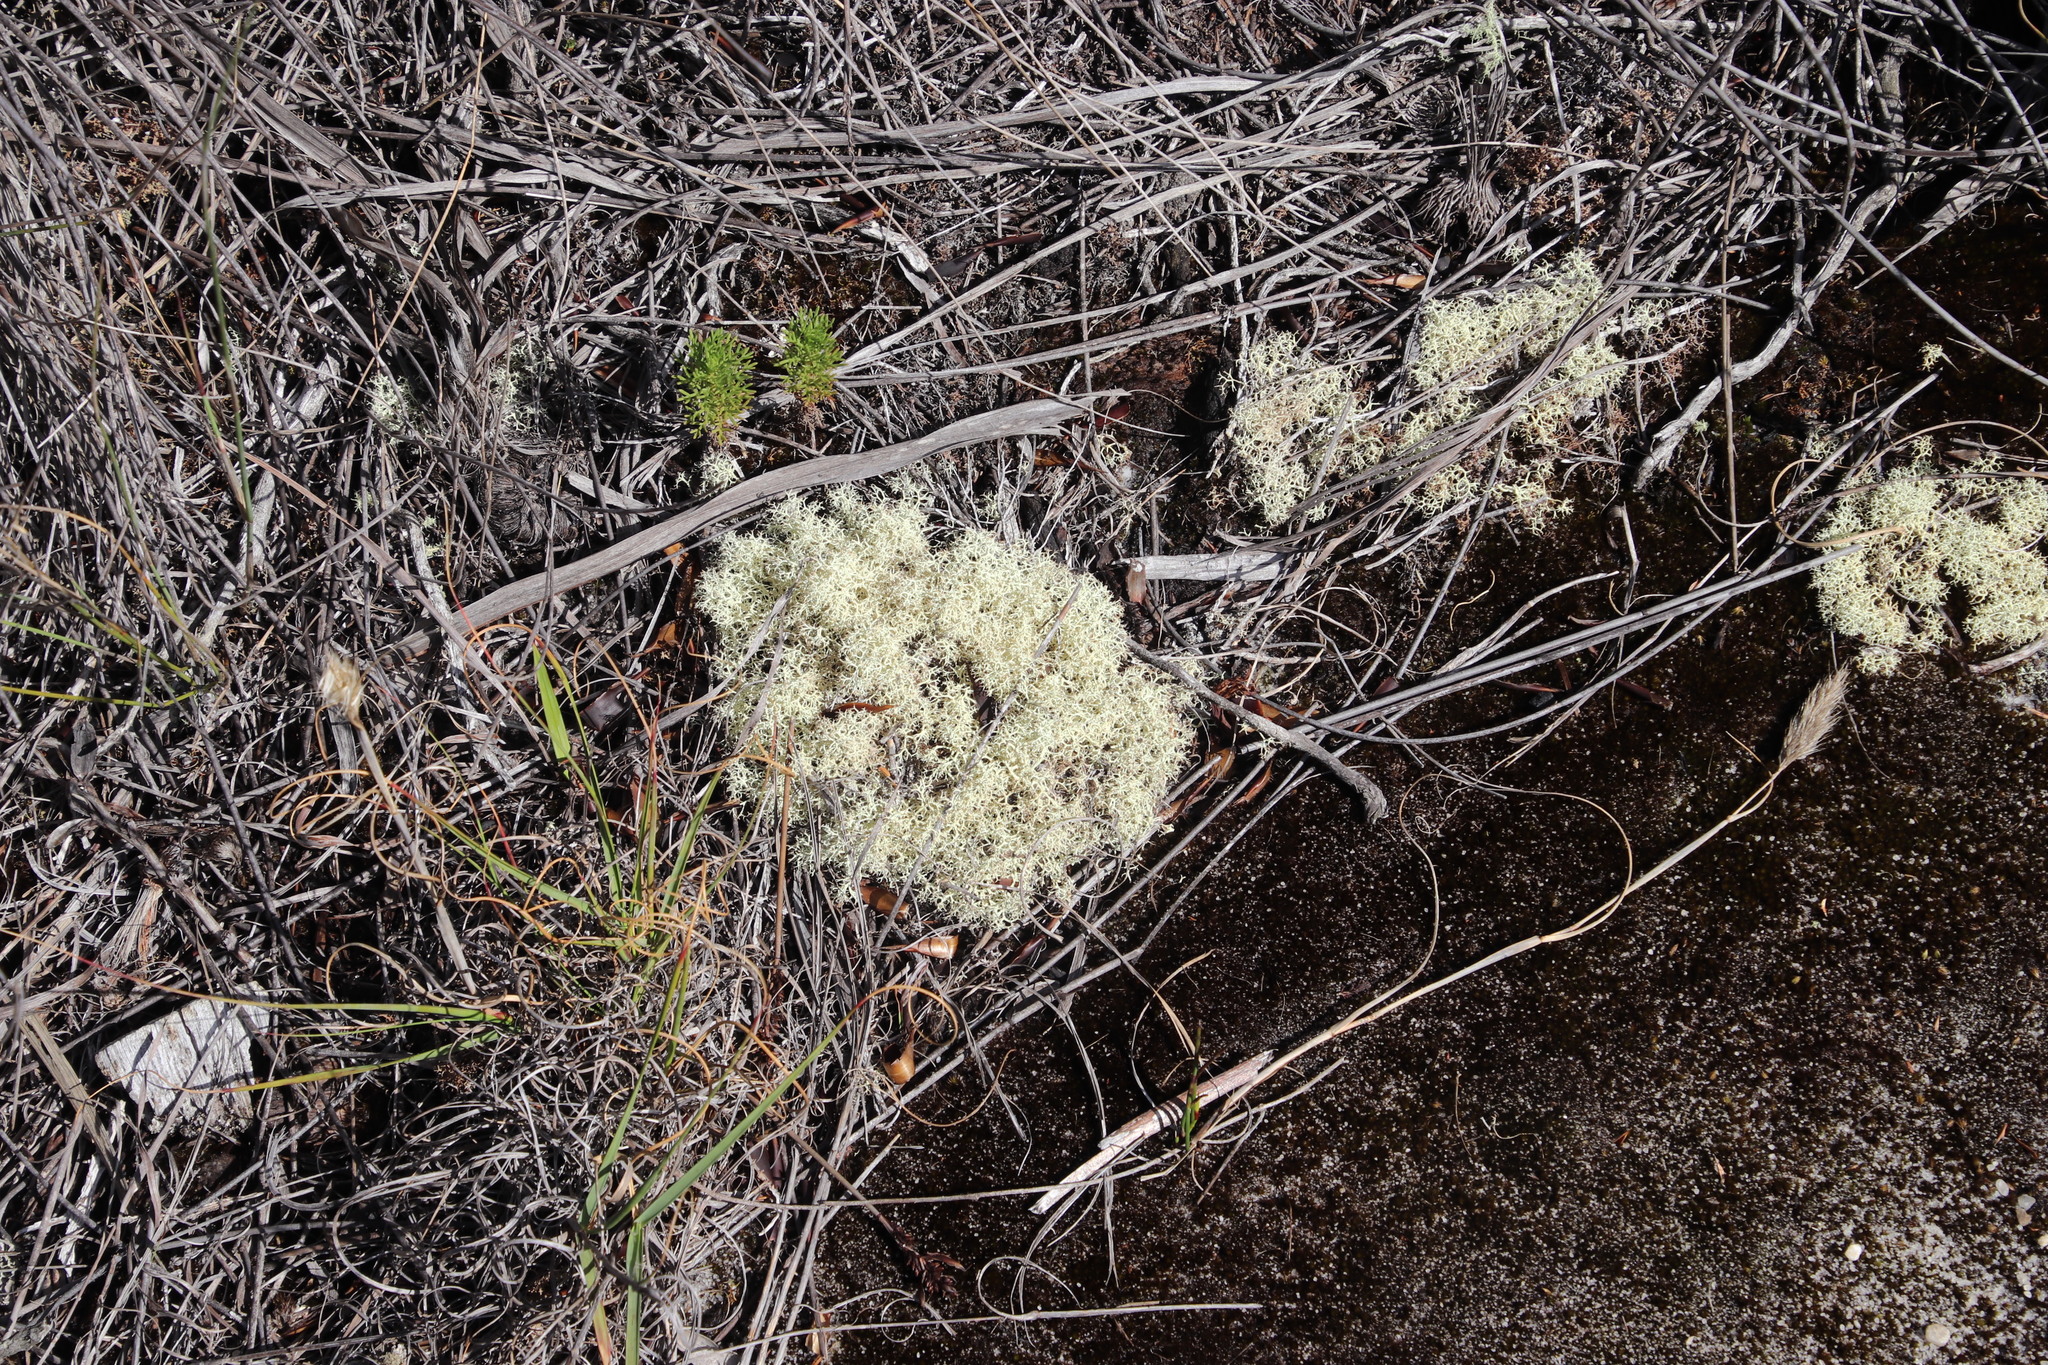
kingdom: Fungi
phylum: Ascomycota
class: Lecanoromycetes
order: Lecanorales
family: Cladoniaceae
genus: Cladonia
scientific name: Cladonia confusa
